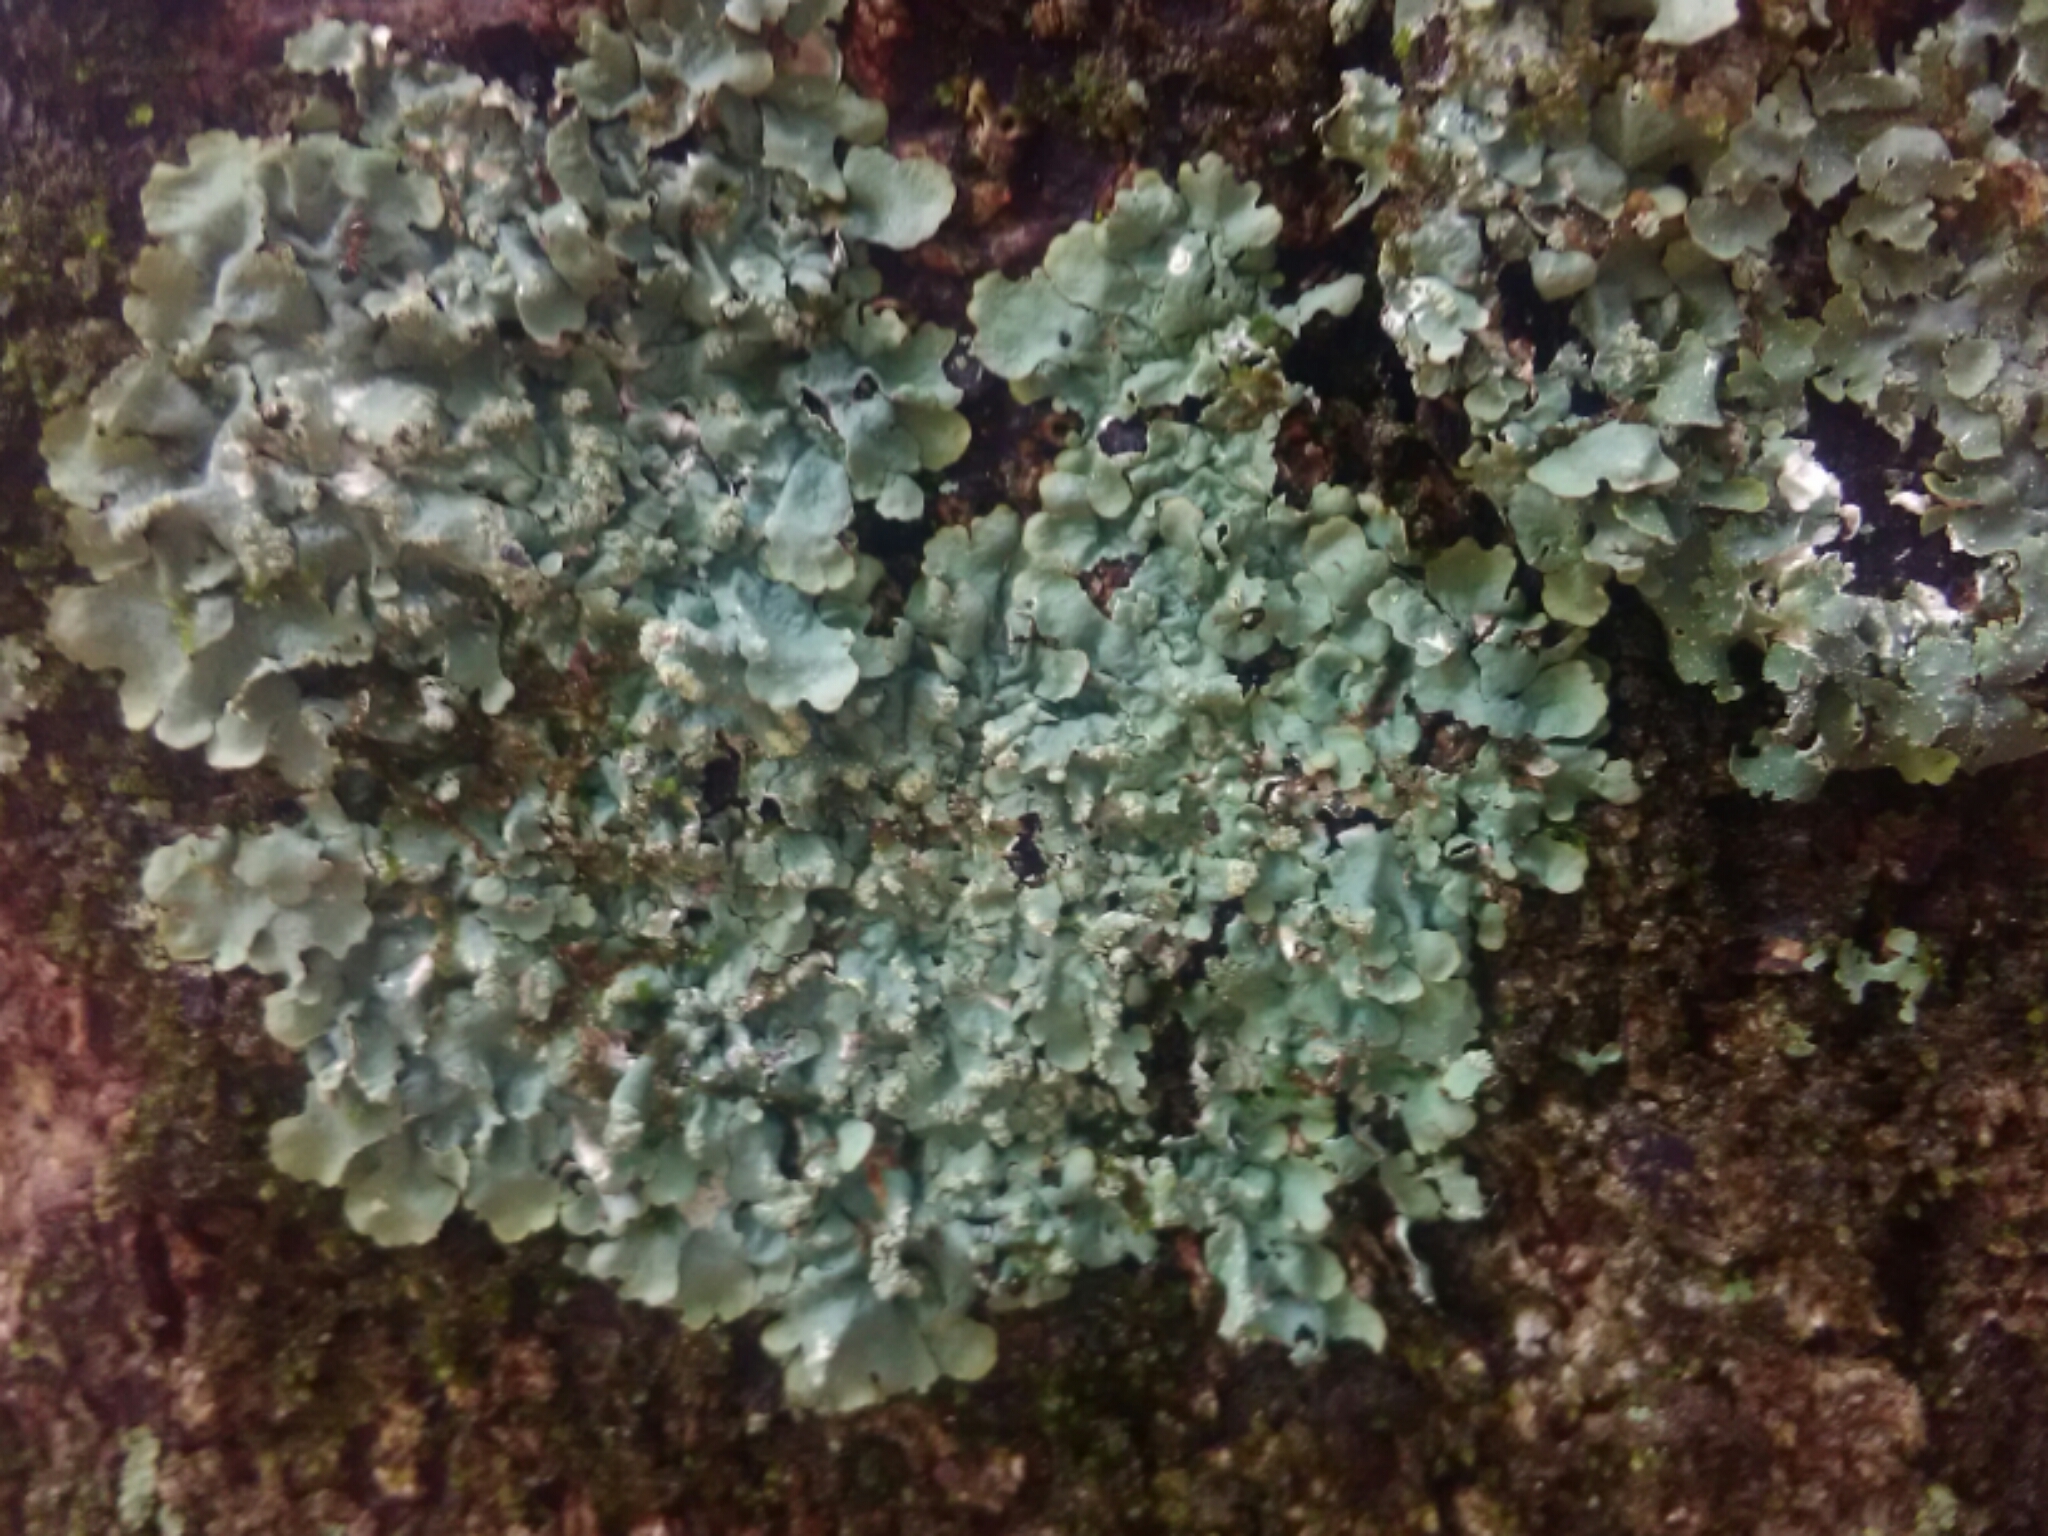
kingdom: Fungi
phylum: Ascomycota
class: Lecanoromycetes
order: Lecanorales
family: Parmeliaceae
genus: Myelochroa
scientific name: Myelochroa aurulenta
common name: Powdery axil-bristle lichen
